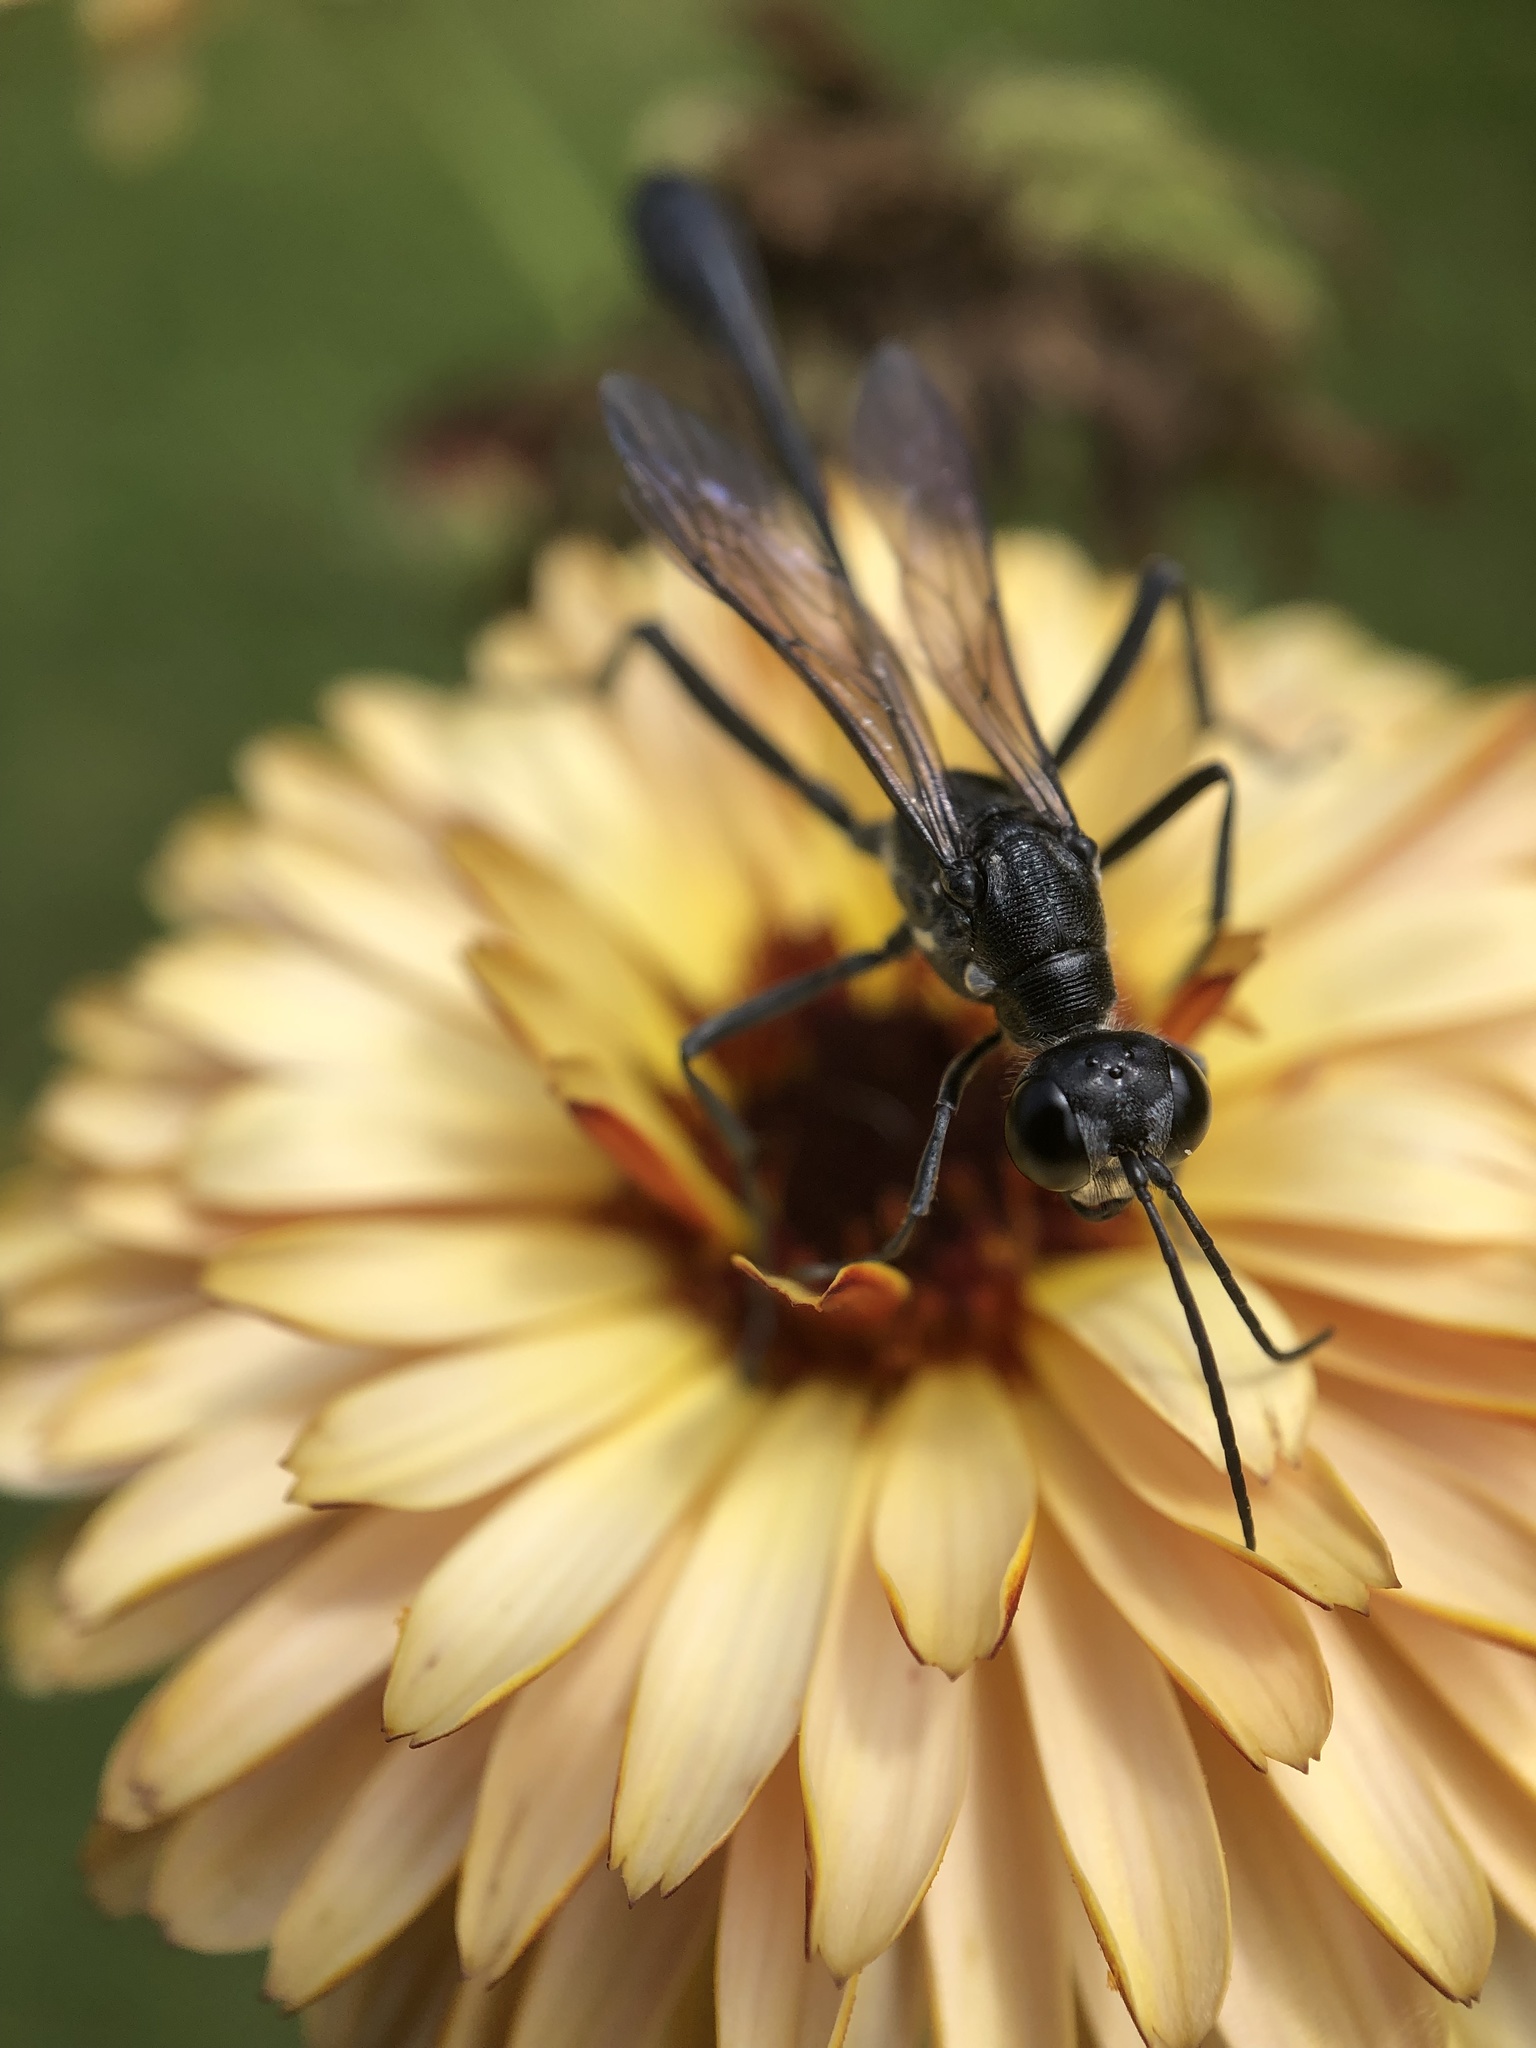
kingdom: Animalia
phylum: Arthropoda
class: Insecta
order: Hymenoptera
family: Sphecidae
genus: Ammophila
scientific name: Ammophila procera
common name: Common thread-waisted wasp
